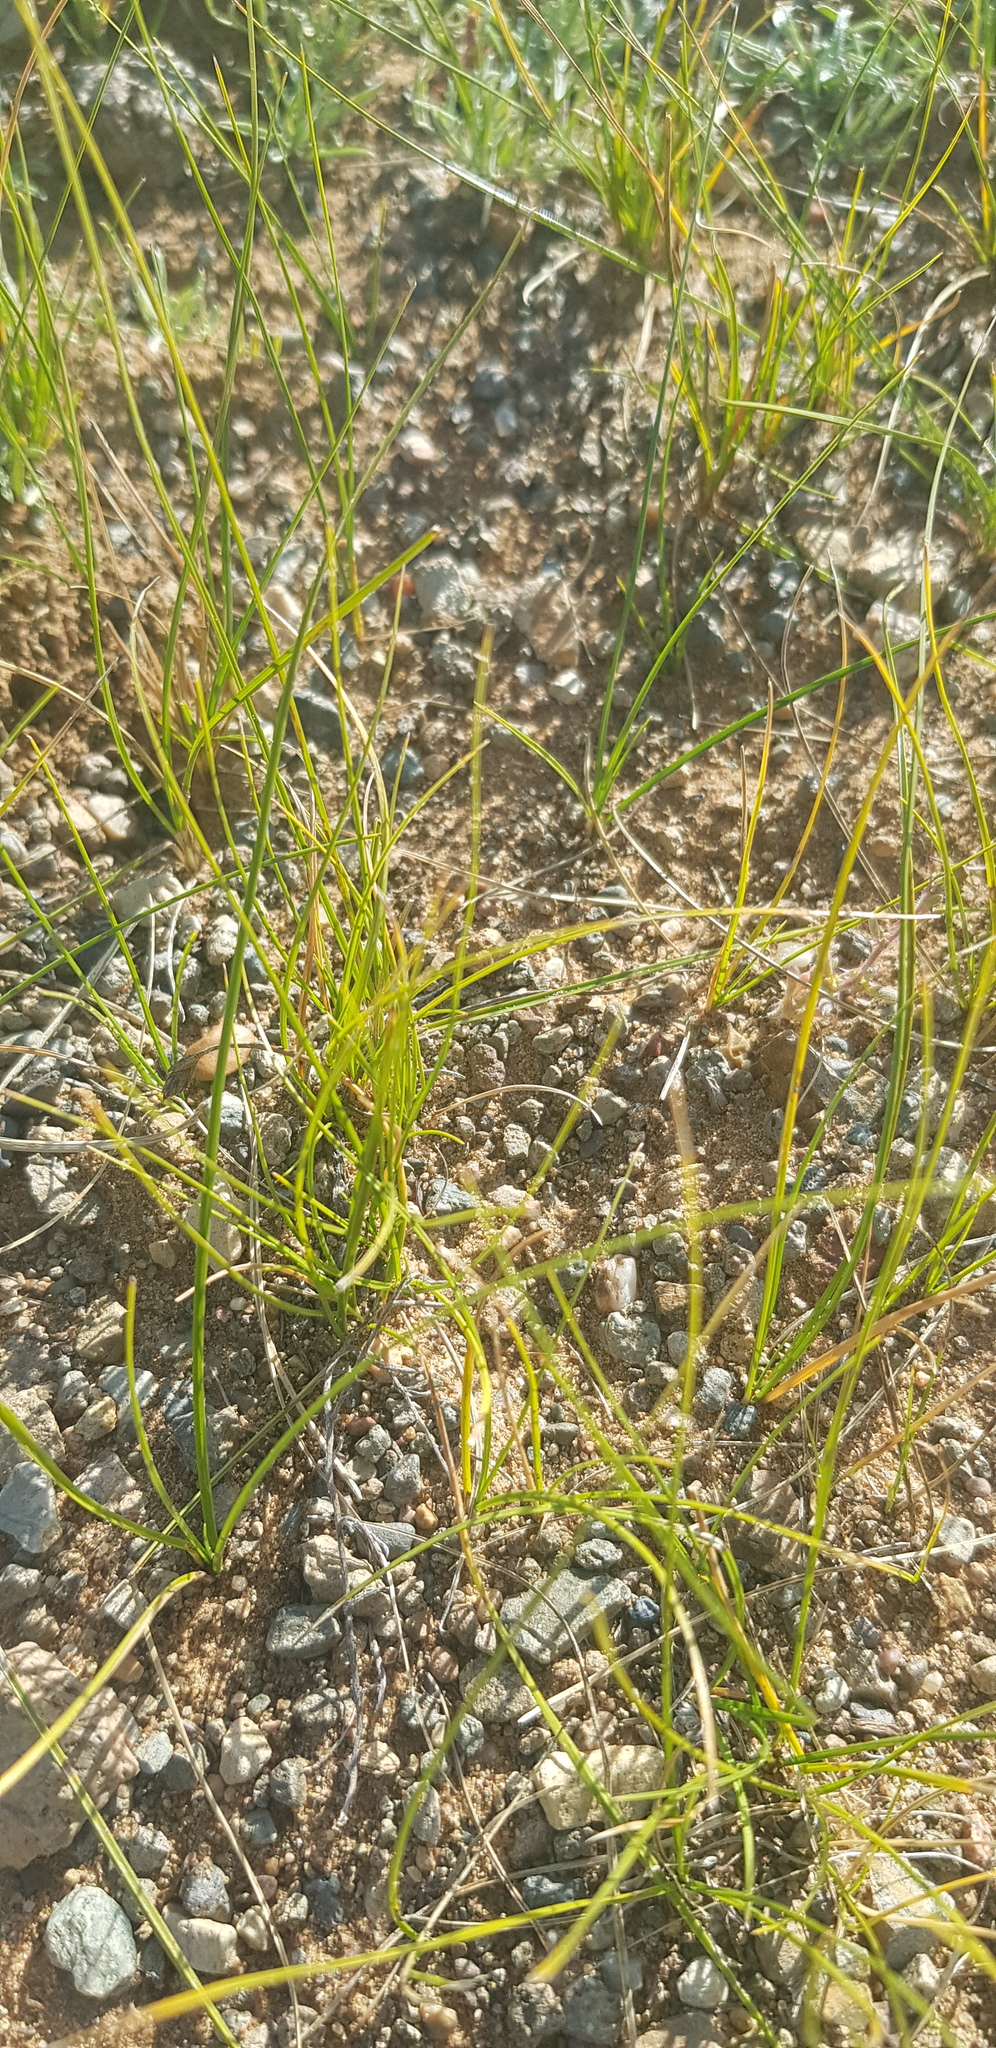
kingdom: Plantae
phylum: Tracheophyta
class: Liliopsida
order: Poales
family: Cyperaceae
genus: Carex
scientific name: Carex duriuscula
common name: Involute-leaved sedge
